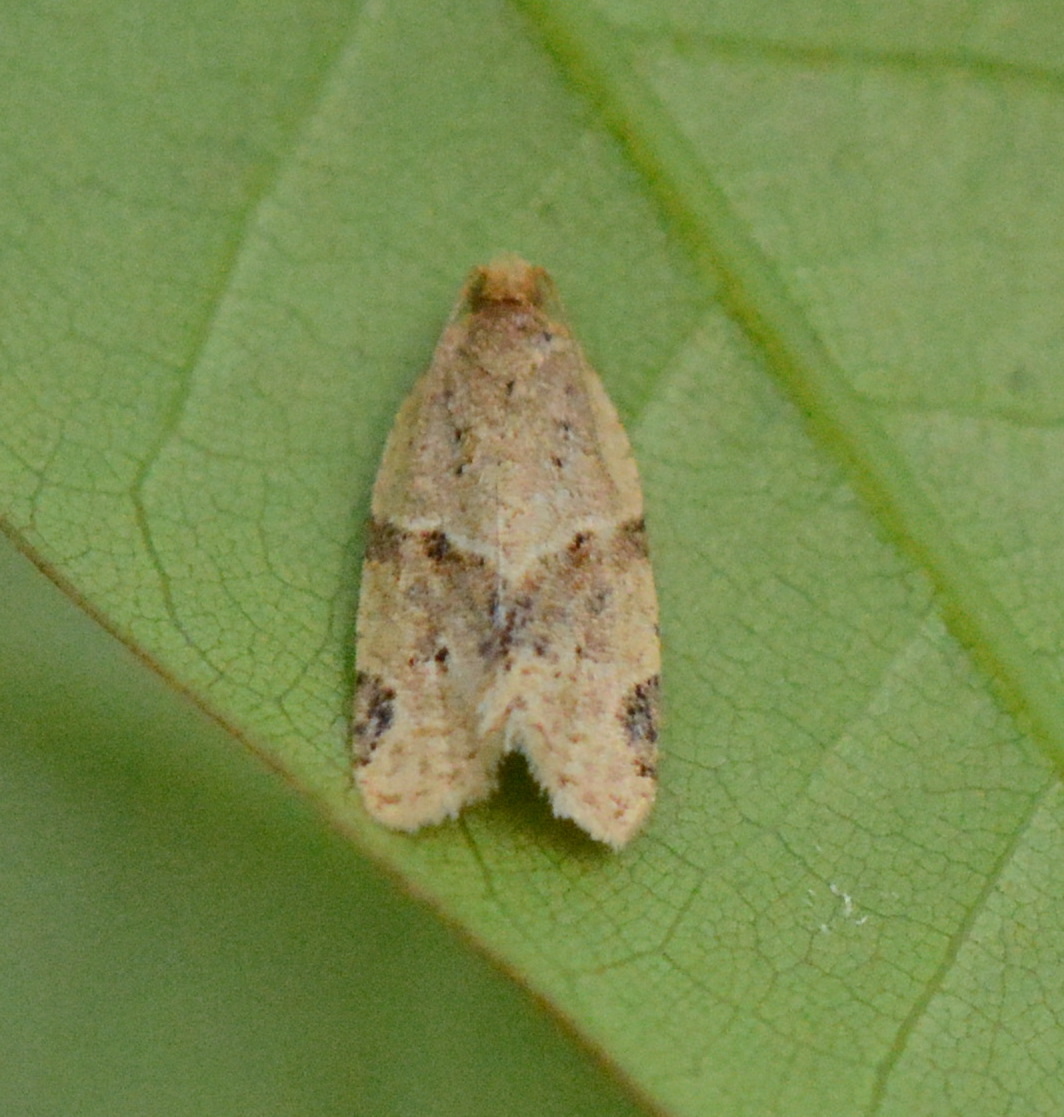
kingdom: Animalia
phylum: Arthropoda
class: Insecta
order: Lepidoptera
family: Tortricidae
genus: Clepsis
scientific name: Clepsis peritana
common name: Garden tortrix
